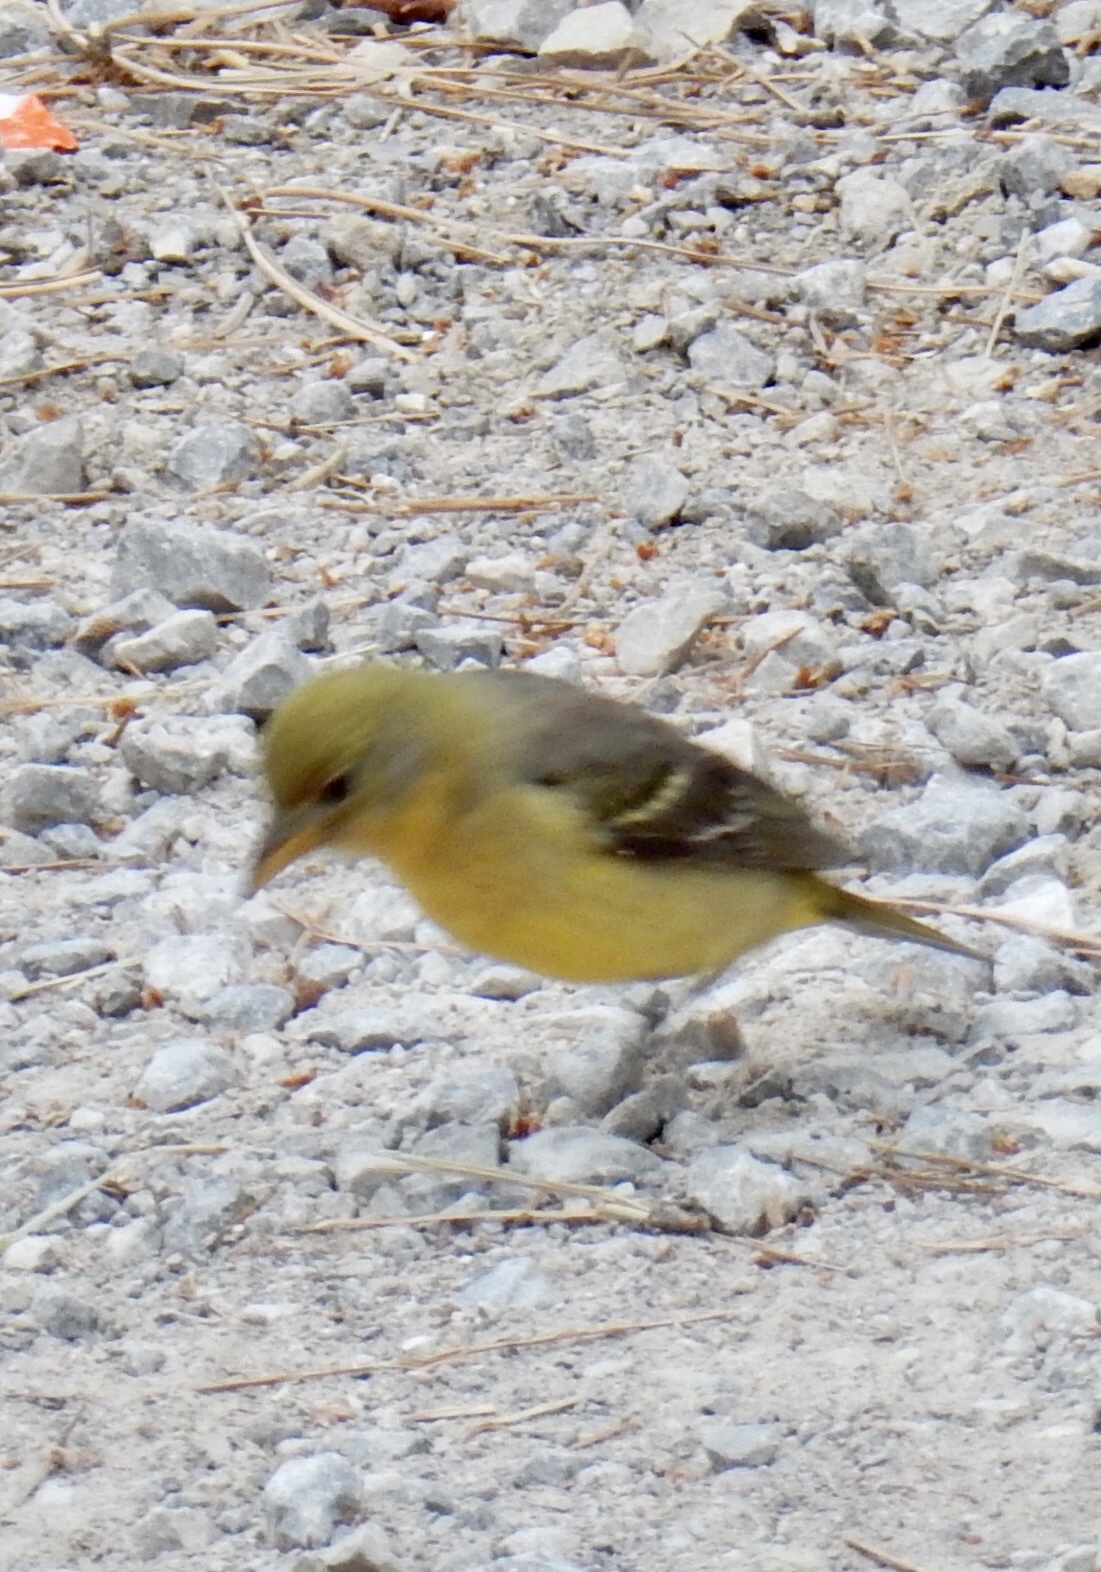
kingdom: Animalia
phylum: Chordata
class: Aves
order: Passeriformes
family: Cardinalidae
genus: Piranga
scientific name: Piranga ludoviciana
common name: Western tanager
